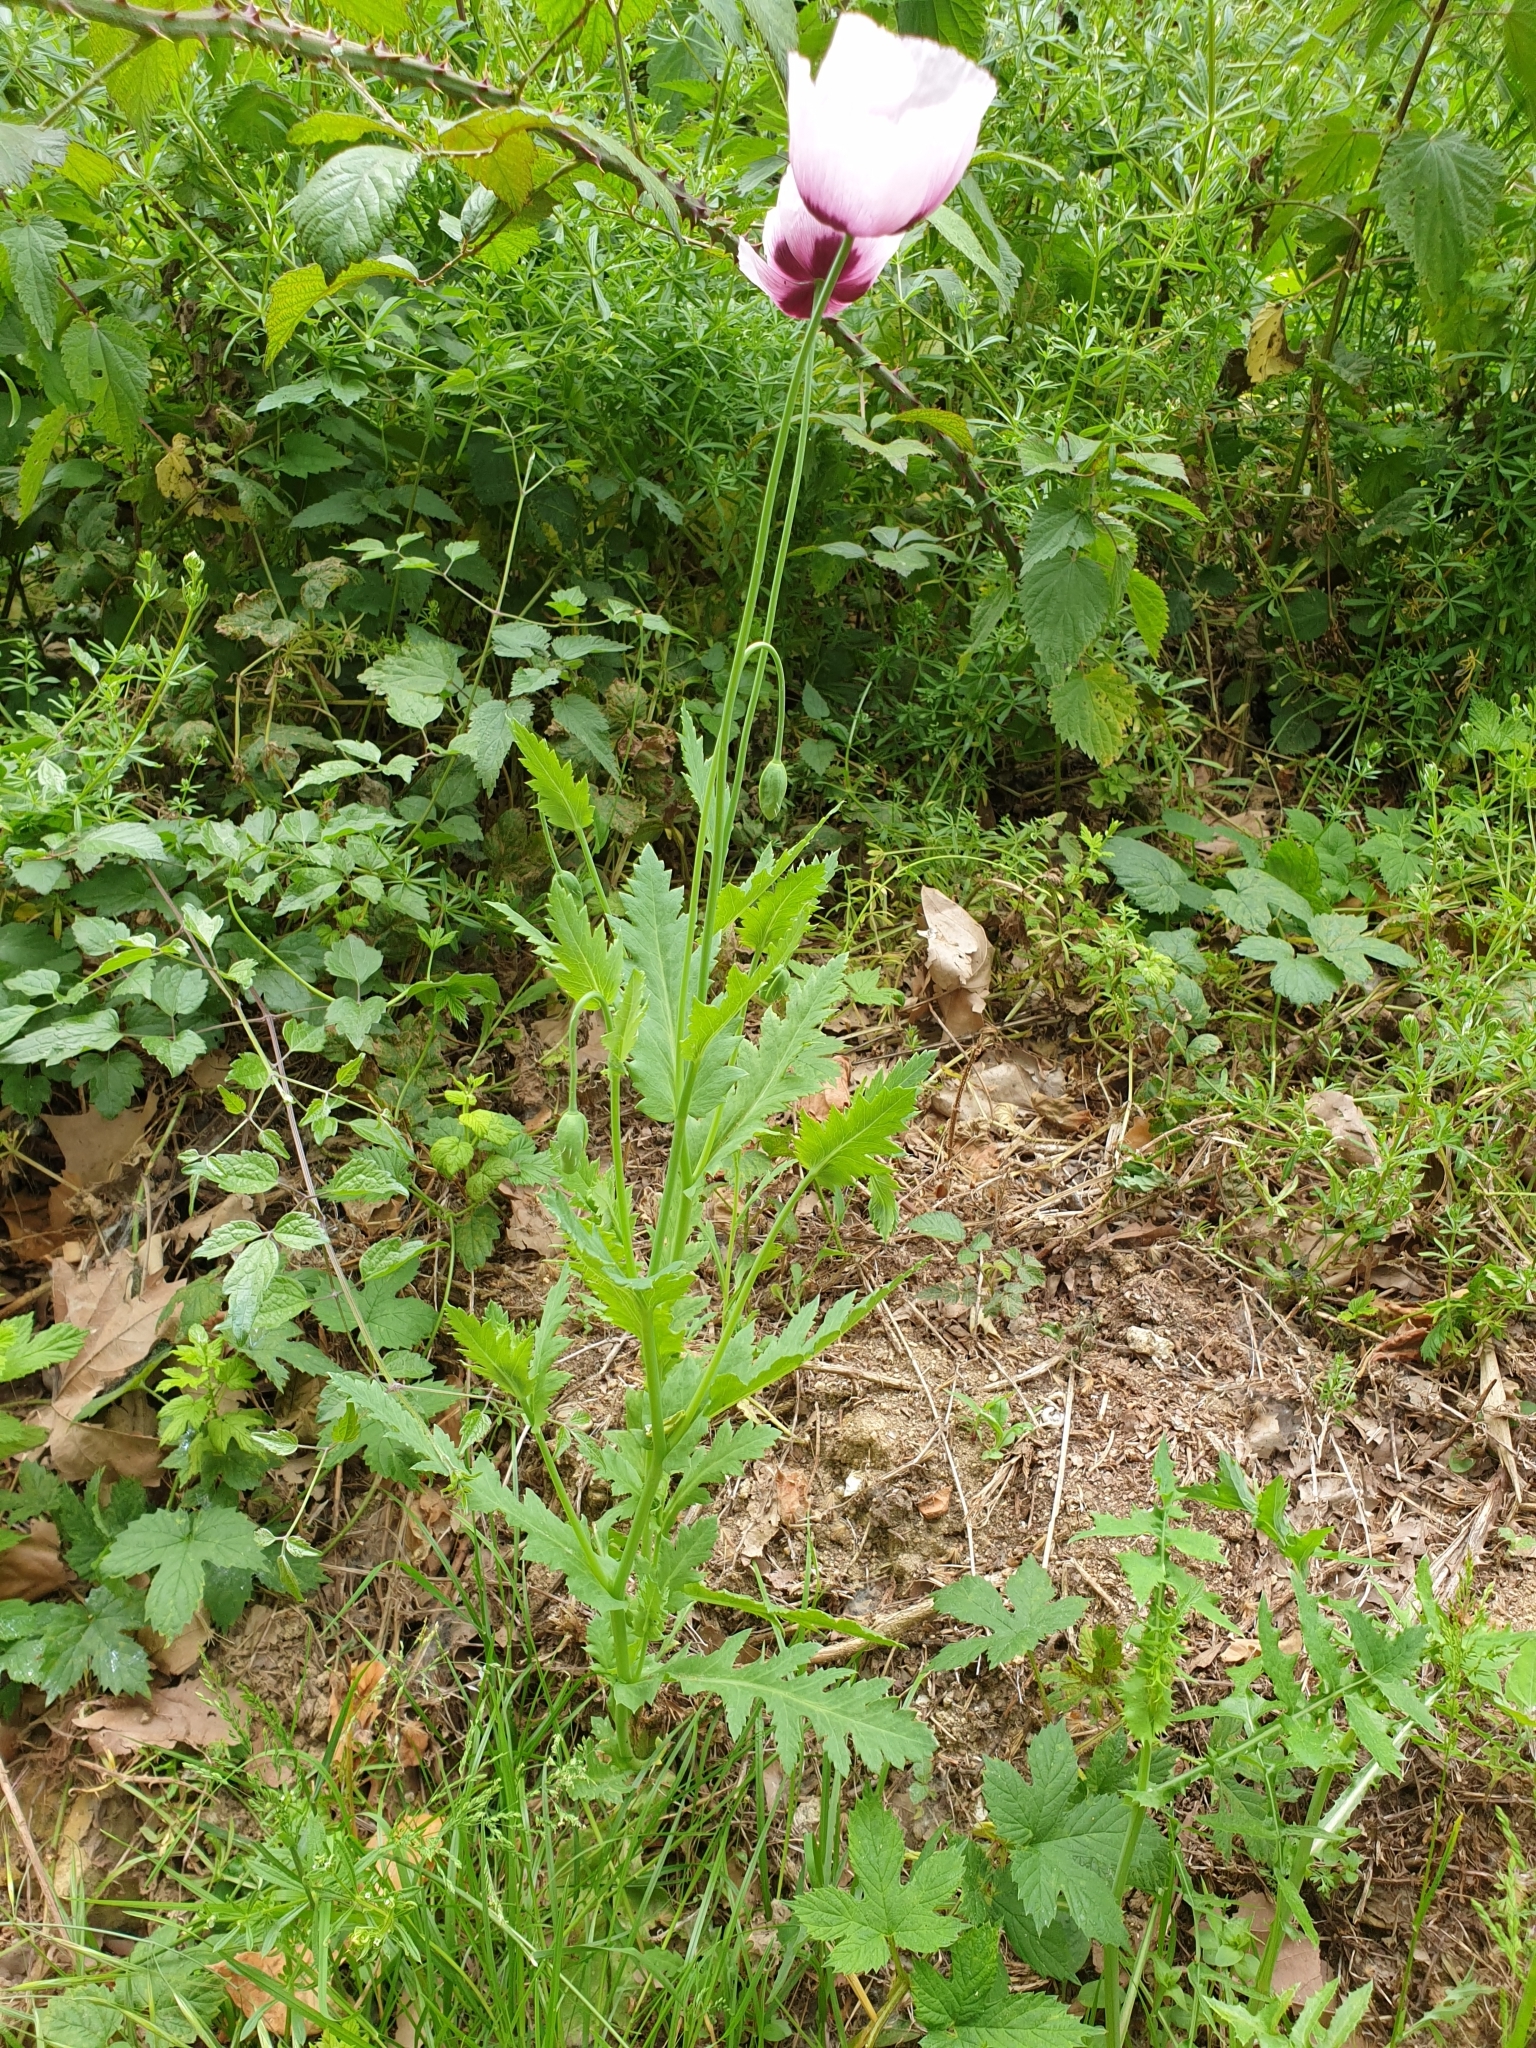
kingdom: Plantae
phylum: Tracheophyta
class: Magnoliopsida
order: Ranunculales
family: Papaveraceae
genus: Papaver
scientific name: Papaver somniferum
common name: Opium poppy
